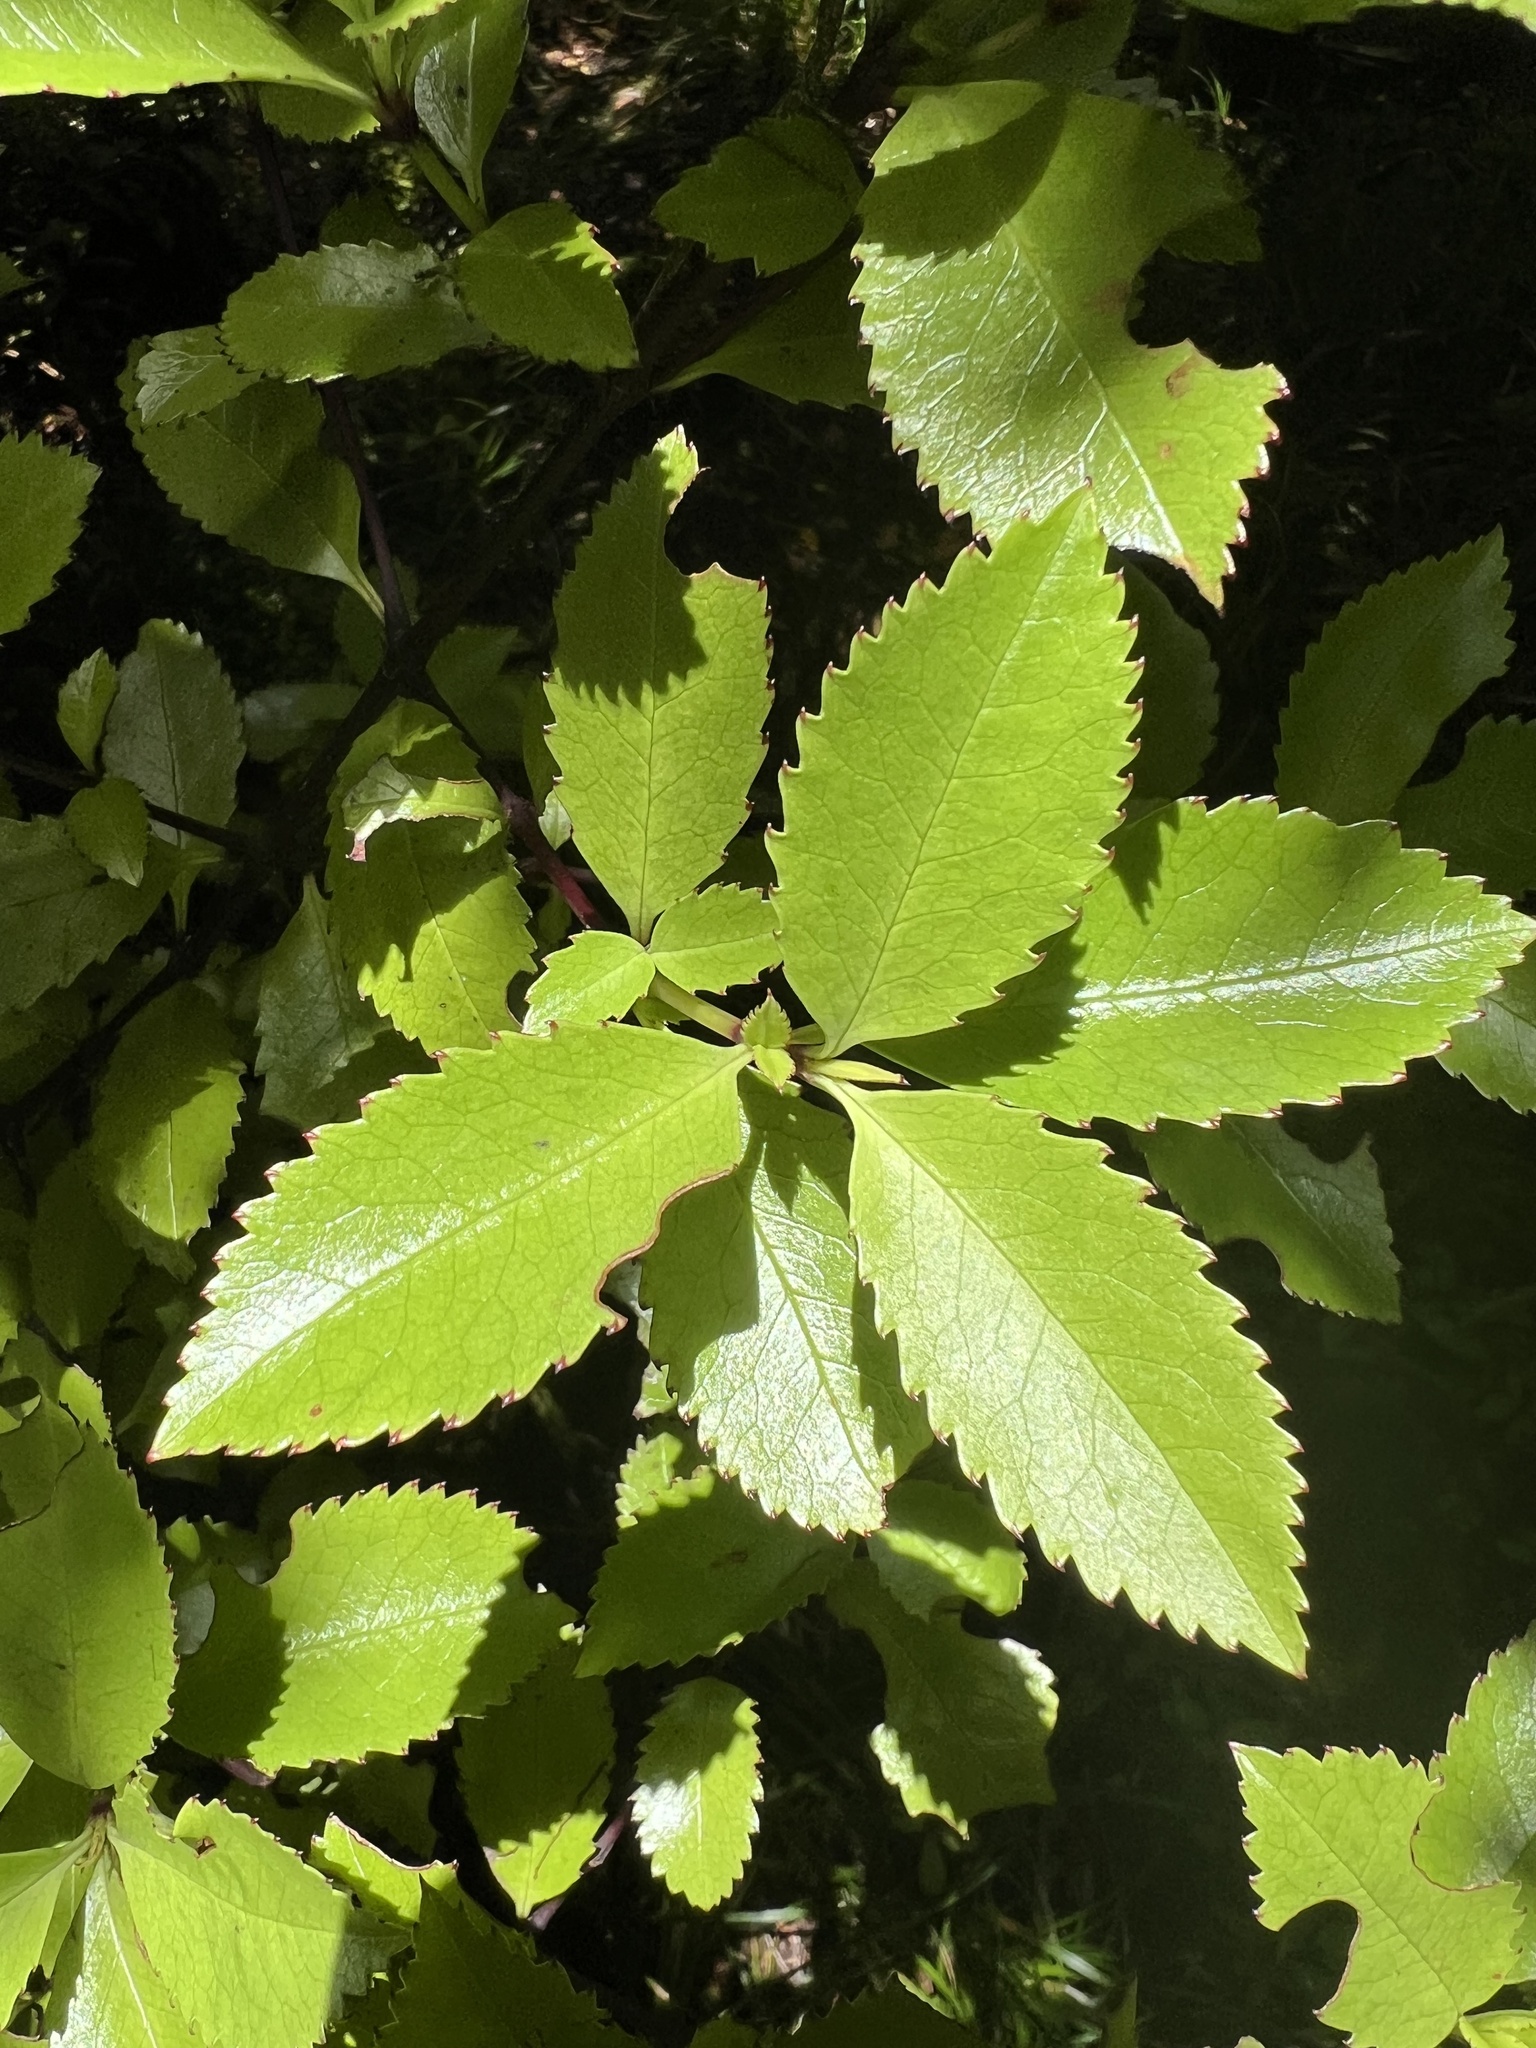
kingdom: Plantae
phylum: Tracheophyta
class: Magnoliopsida
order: Chloranthales
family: Chloranthaceae
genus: Ascarina
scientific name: Ascarina lucida
